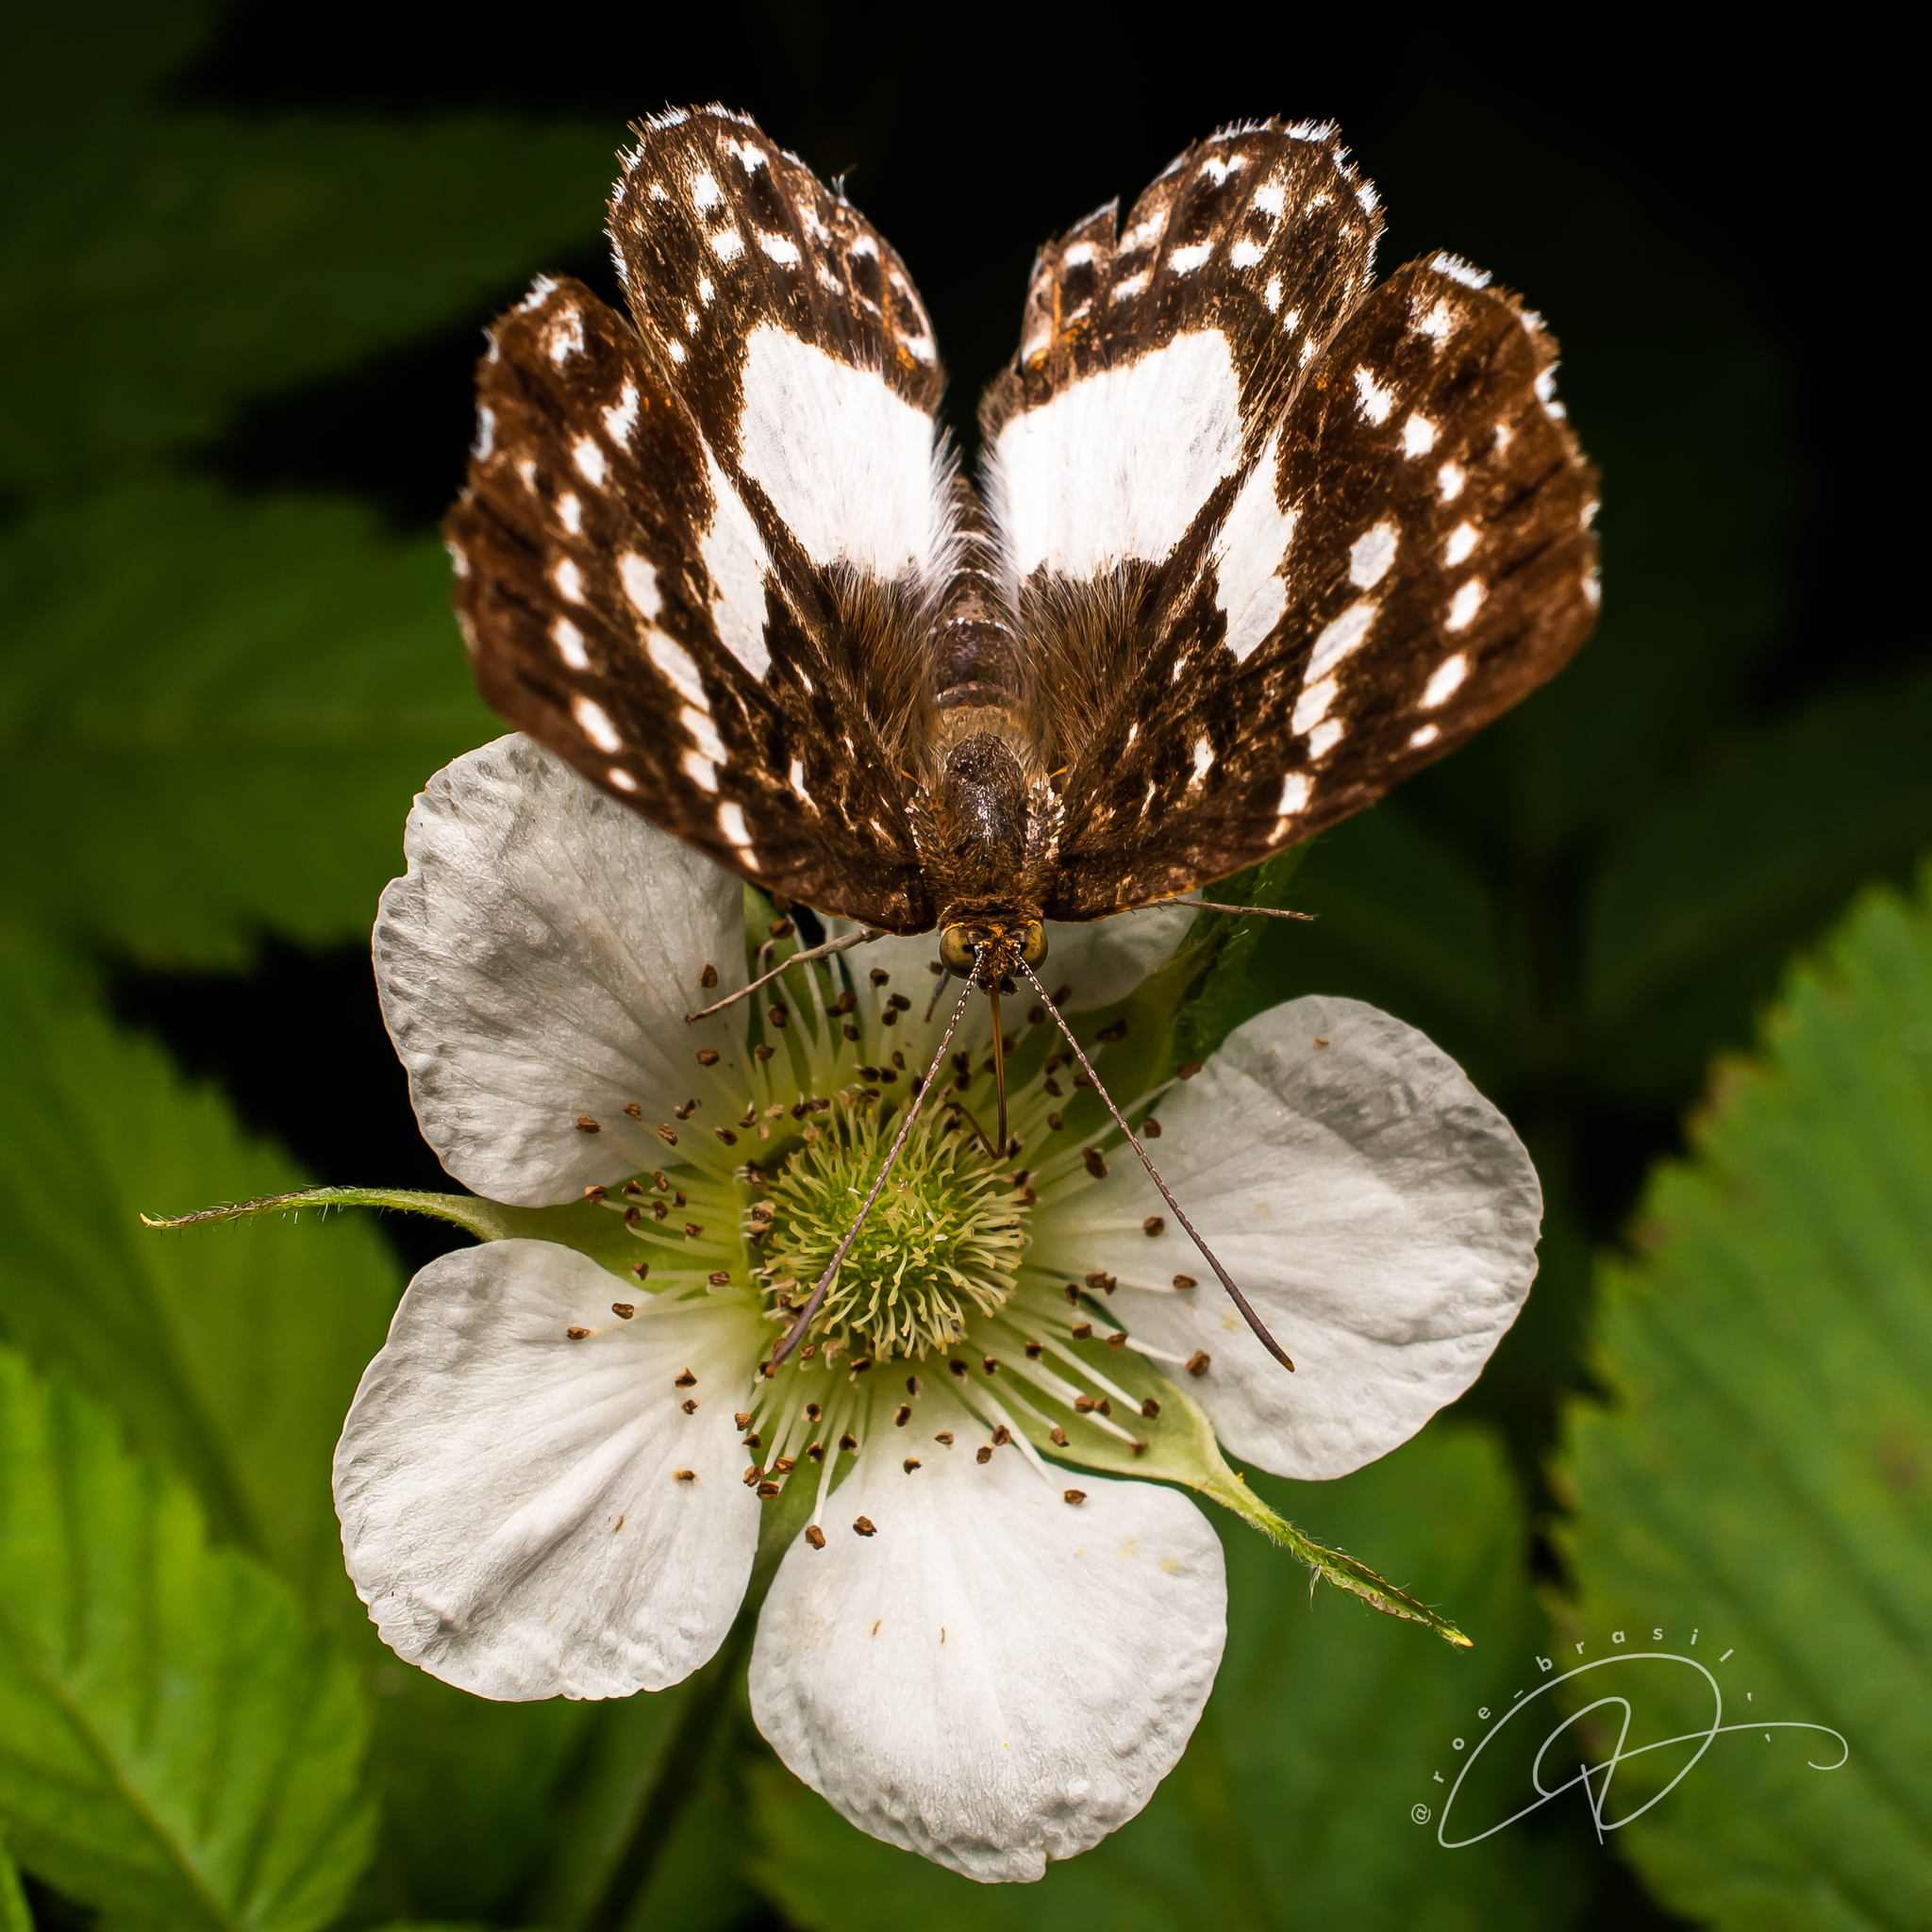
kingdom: Animalia
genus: Lemonias
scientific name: Lemonias zygia
